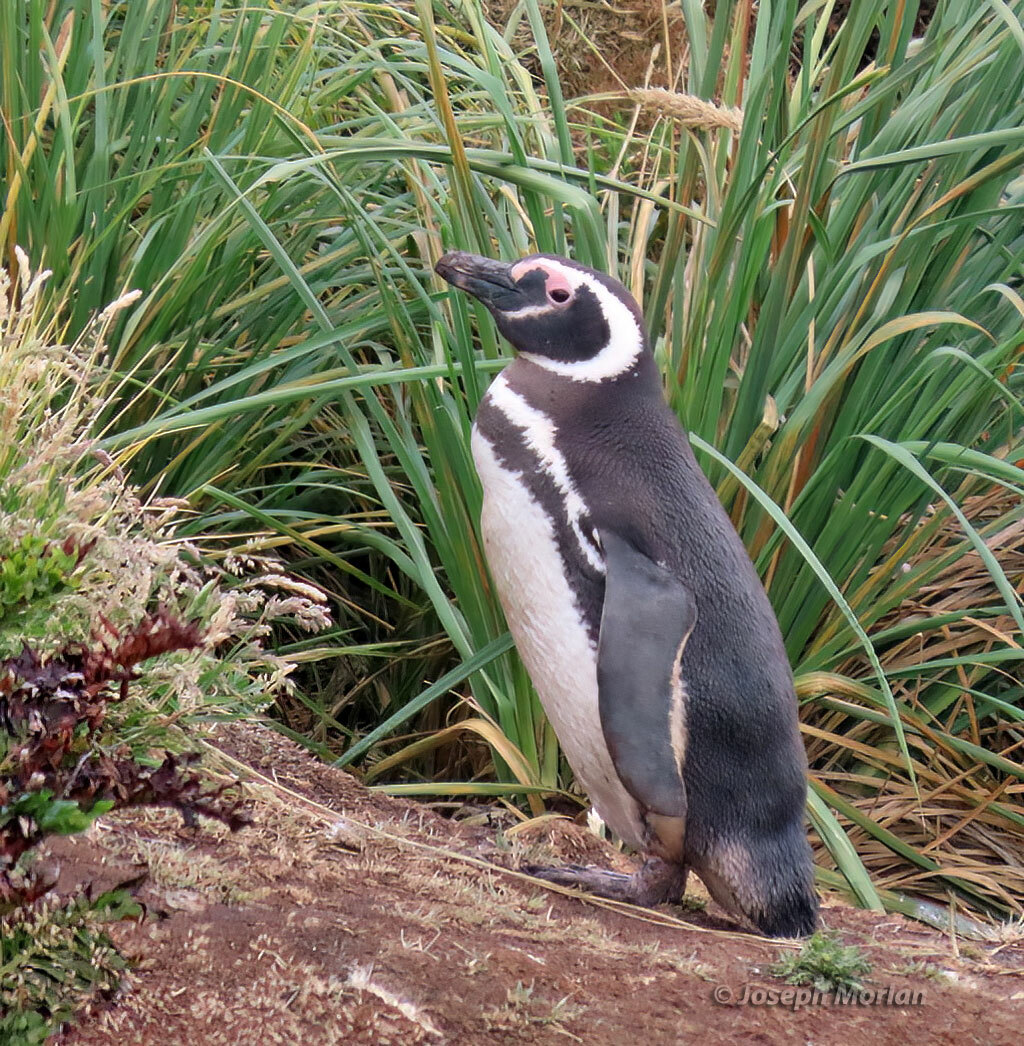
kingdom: Animalia
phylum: Chordata
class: Aves
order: Sphenisciformes
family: Spheniscidae
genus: Spheniscus
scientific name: Spheniscus magellanicus
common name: Magellanic penguin
